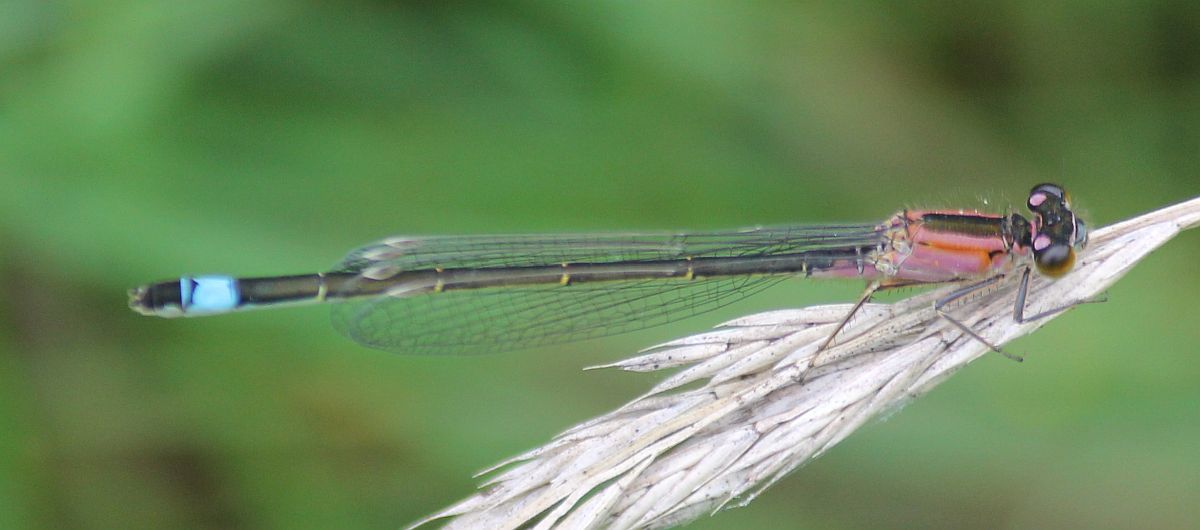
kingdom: Animalia
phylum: Arthropoda
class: Insecta
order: Odonata
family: Coenagrionidae
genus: Ischnura
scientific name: Ischnura elegans
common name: Blue-tailed damselfly
